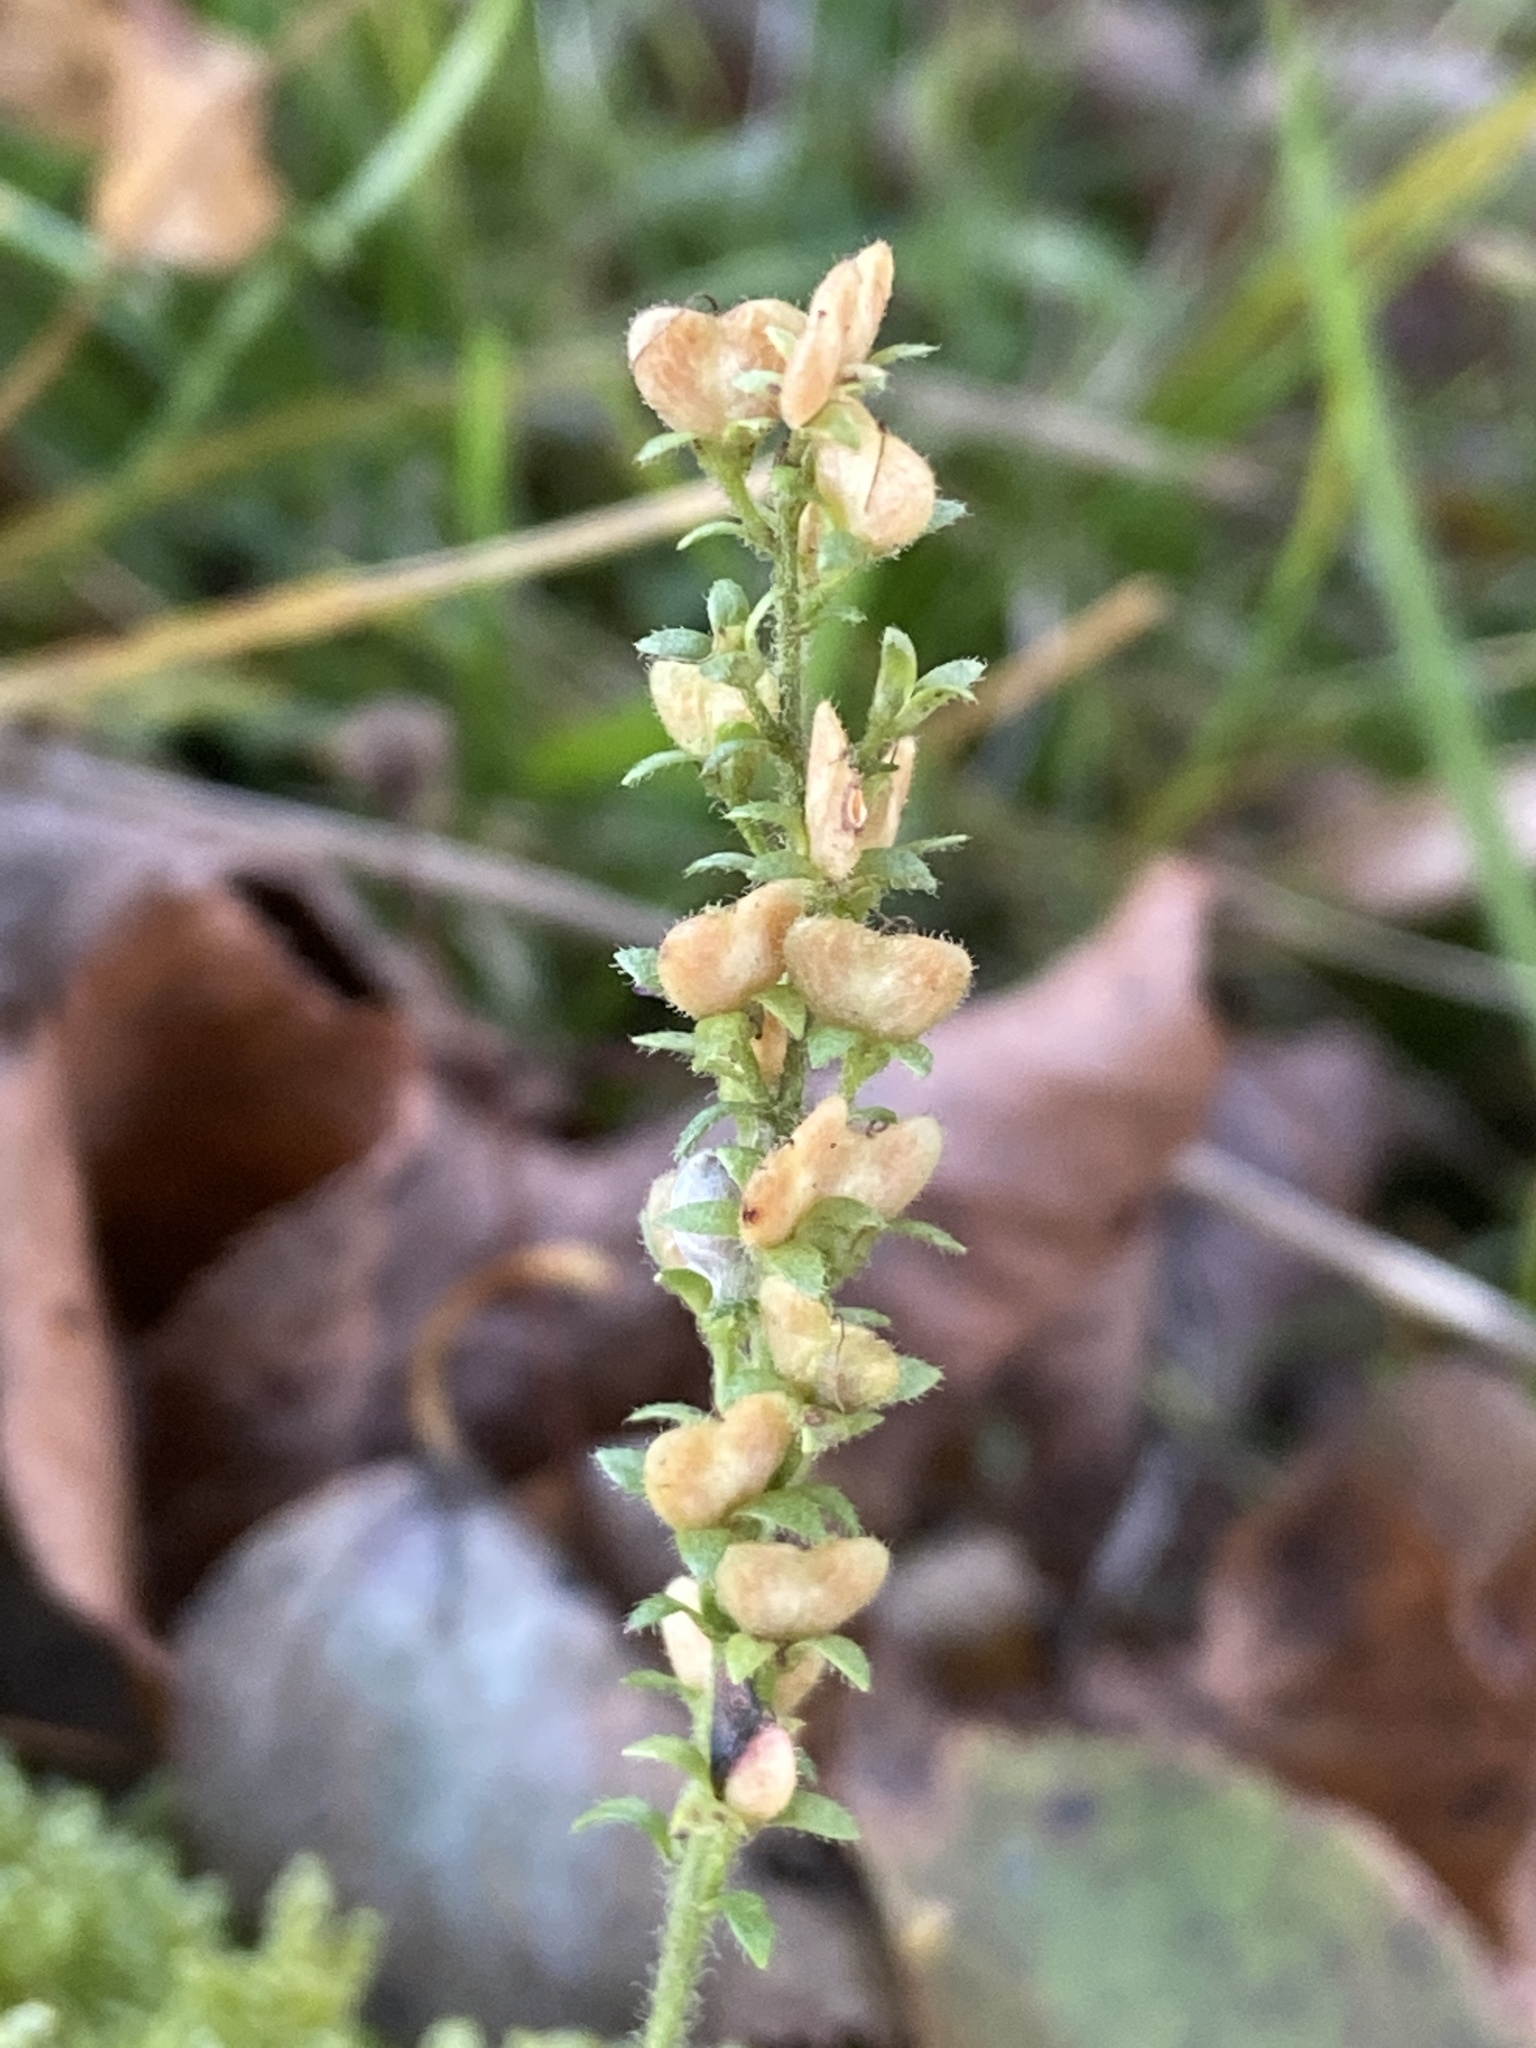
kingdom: Plantae
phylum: Tracheophyta
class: Magnoliopsida
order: Lamiales
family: Plantaginaceae
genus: Veronica
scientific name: Veronica officinalis
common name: Common speedwell
